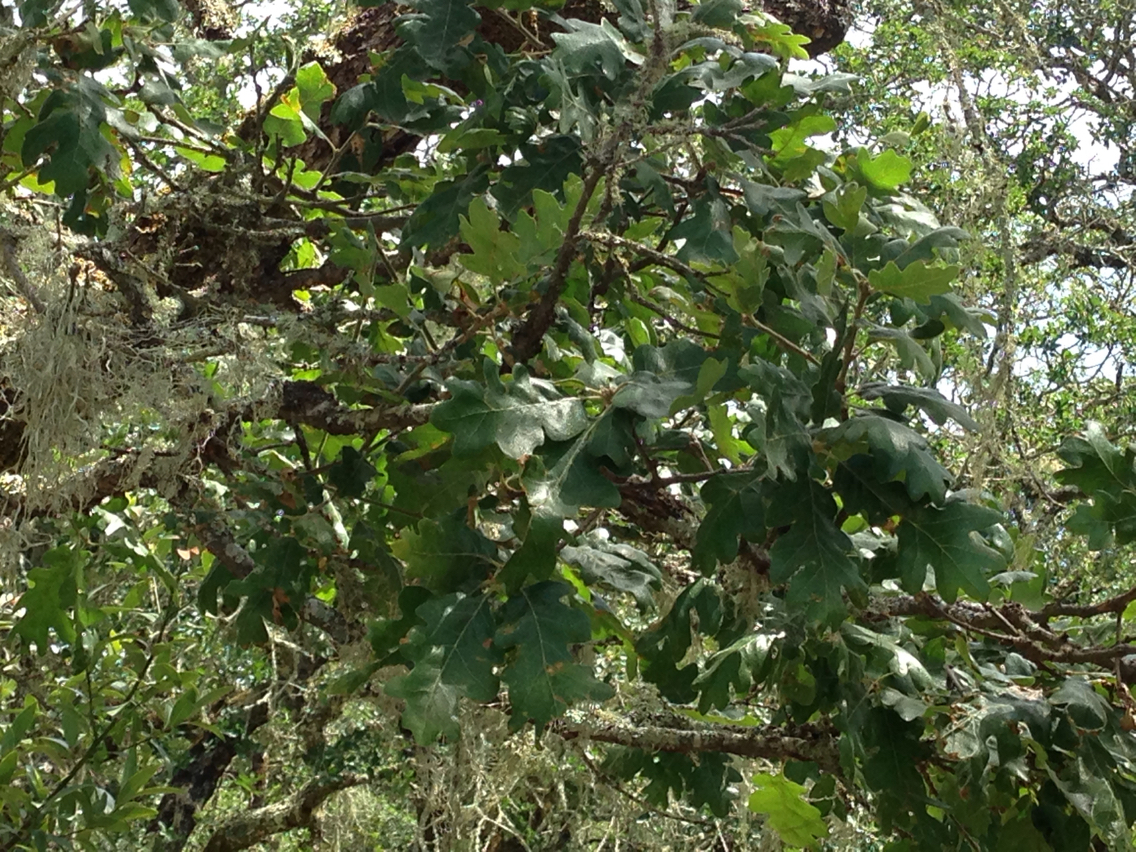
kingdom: Plantae
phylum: Tracheophyta
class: Magnoliopsida
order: Fagales
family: Fagaceae
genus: Quercus
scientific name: Quercus lobata
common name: Valley oak
